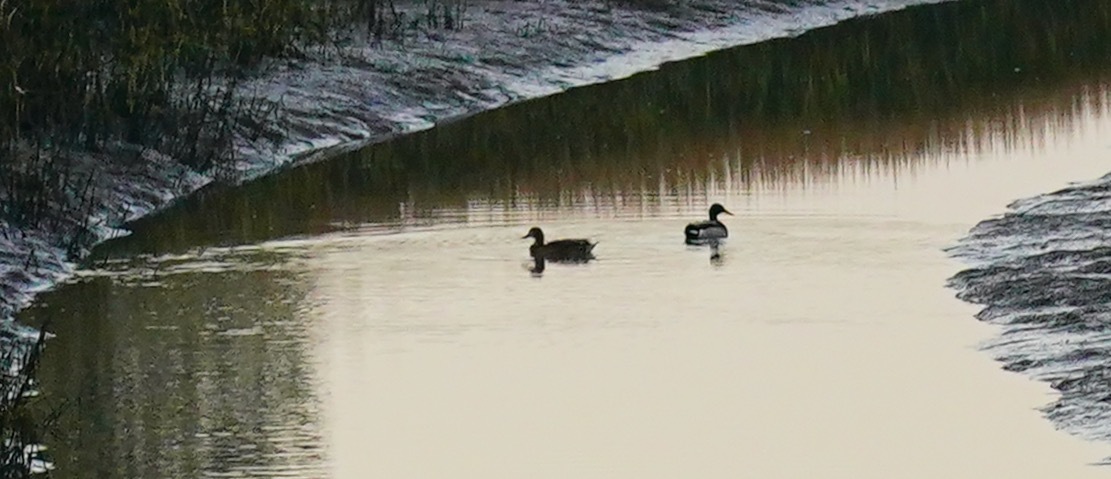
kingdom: Animalia
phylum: Chordata
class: Aves
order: Anseriformes
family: Anatidae
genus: Anas
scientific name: Anas platyrhynchos
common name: Mallard
